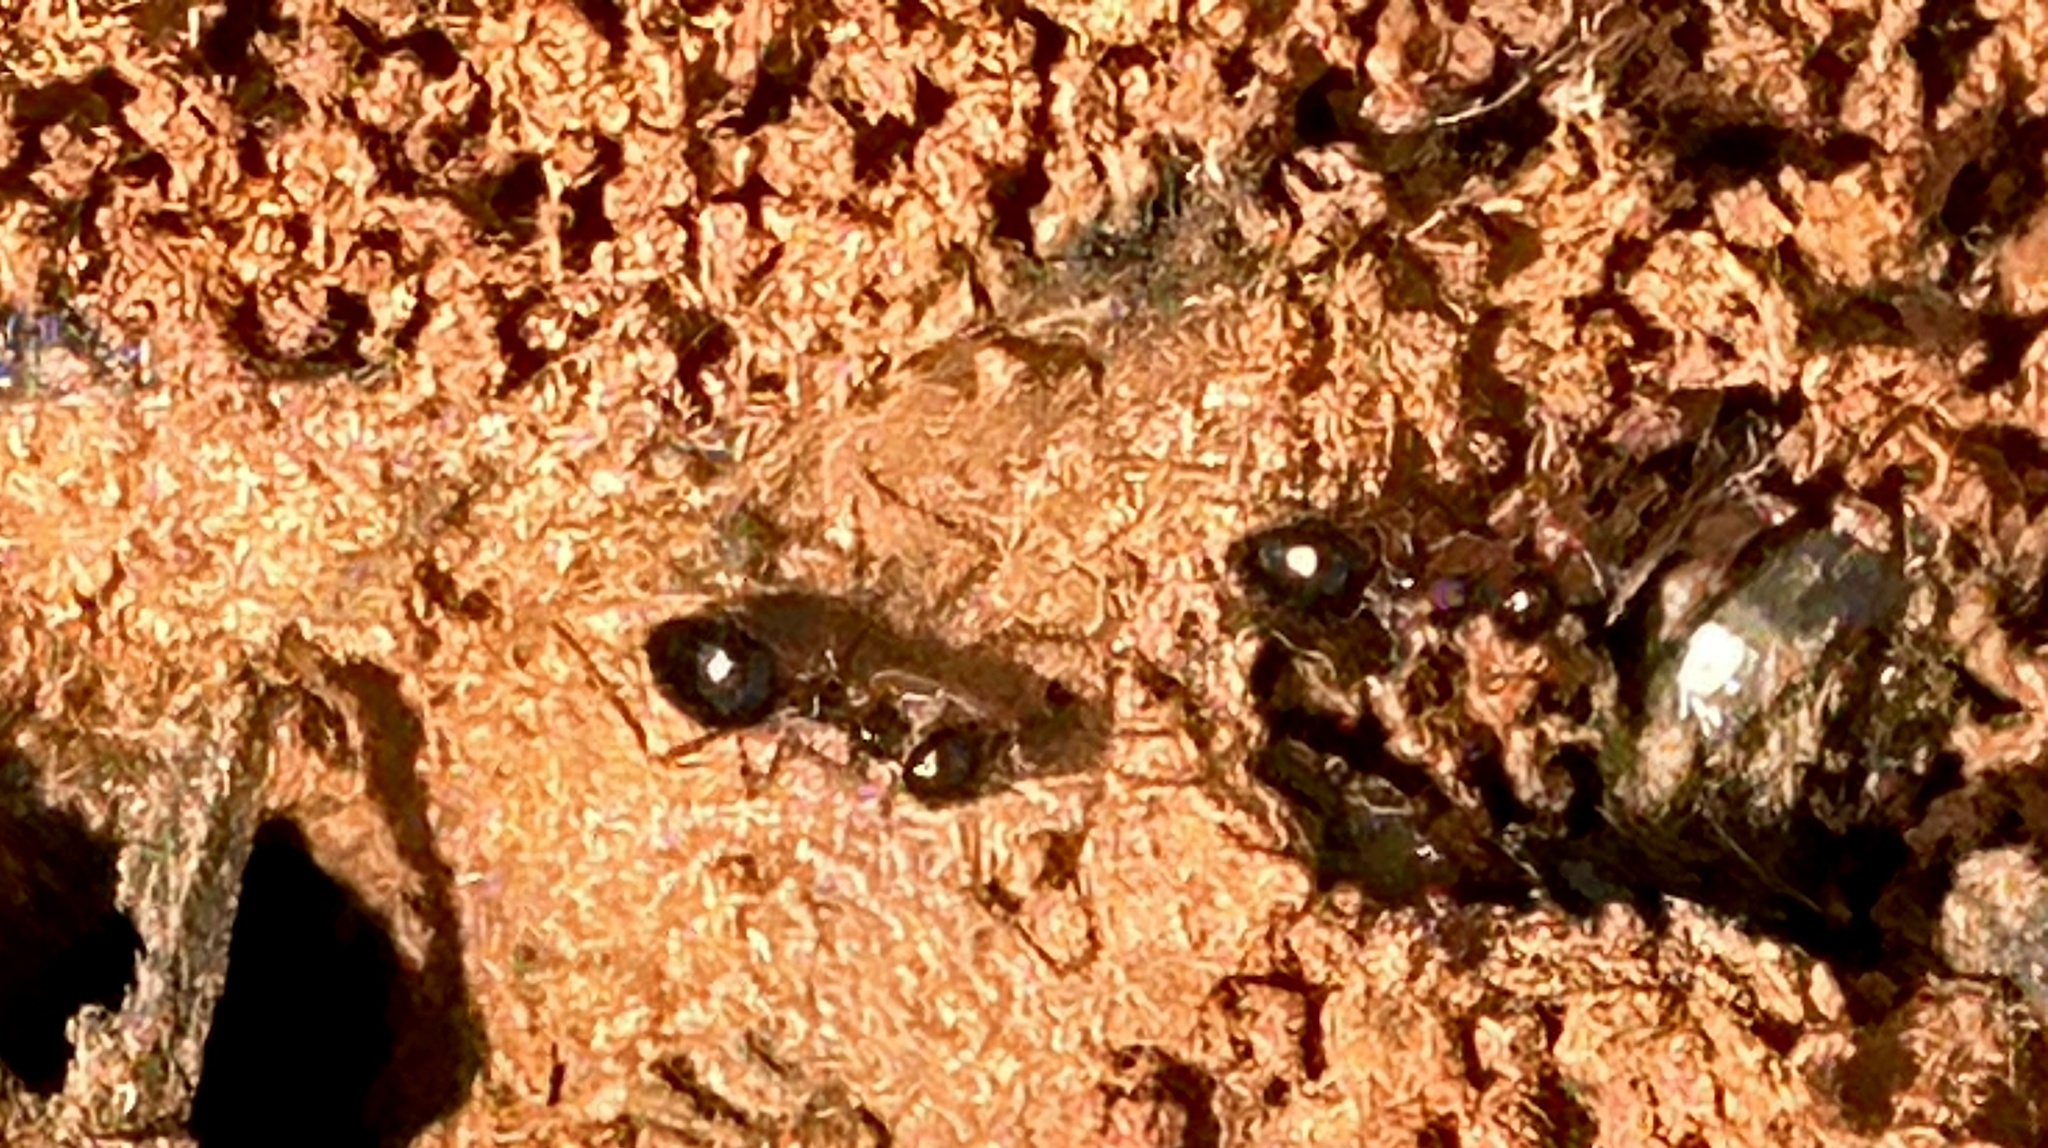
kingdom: Animalia
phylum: Arthropoda
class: Insecta
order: Hymenoptera
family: Formicidae
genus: Prenolepis
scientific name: Prenolepis imparis
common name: Small honey ant
